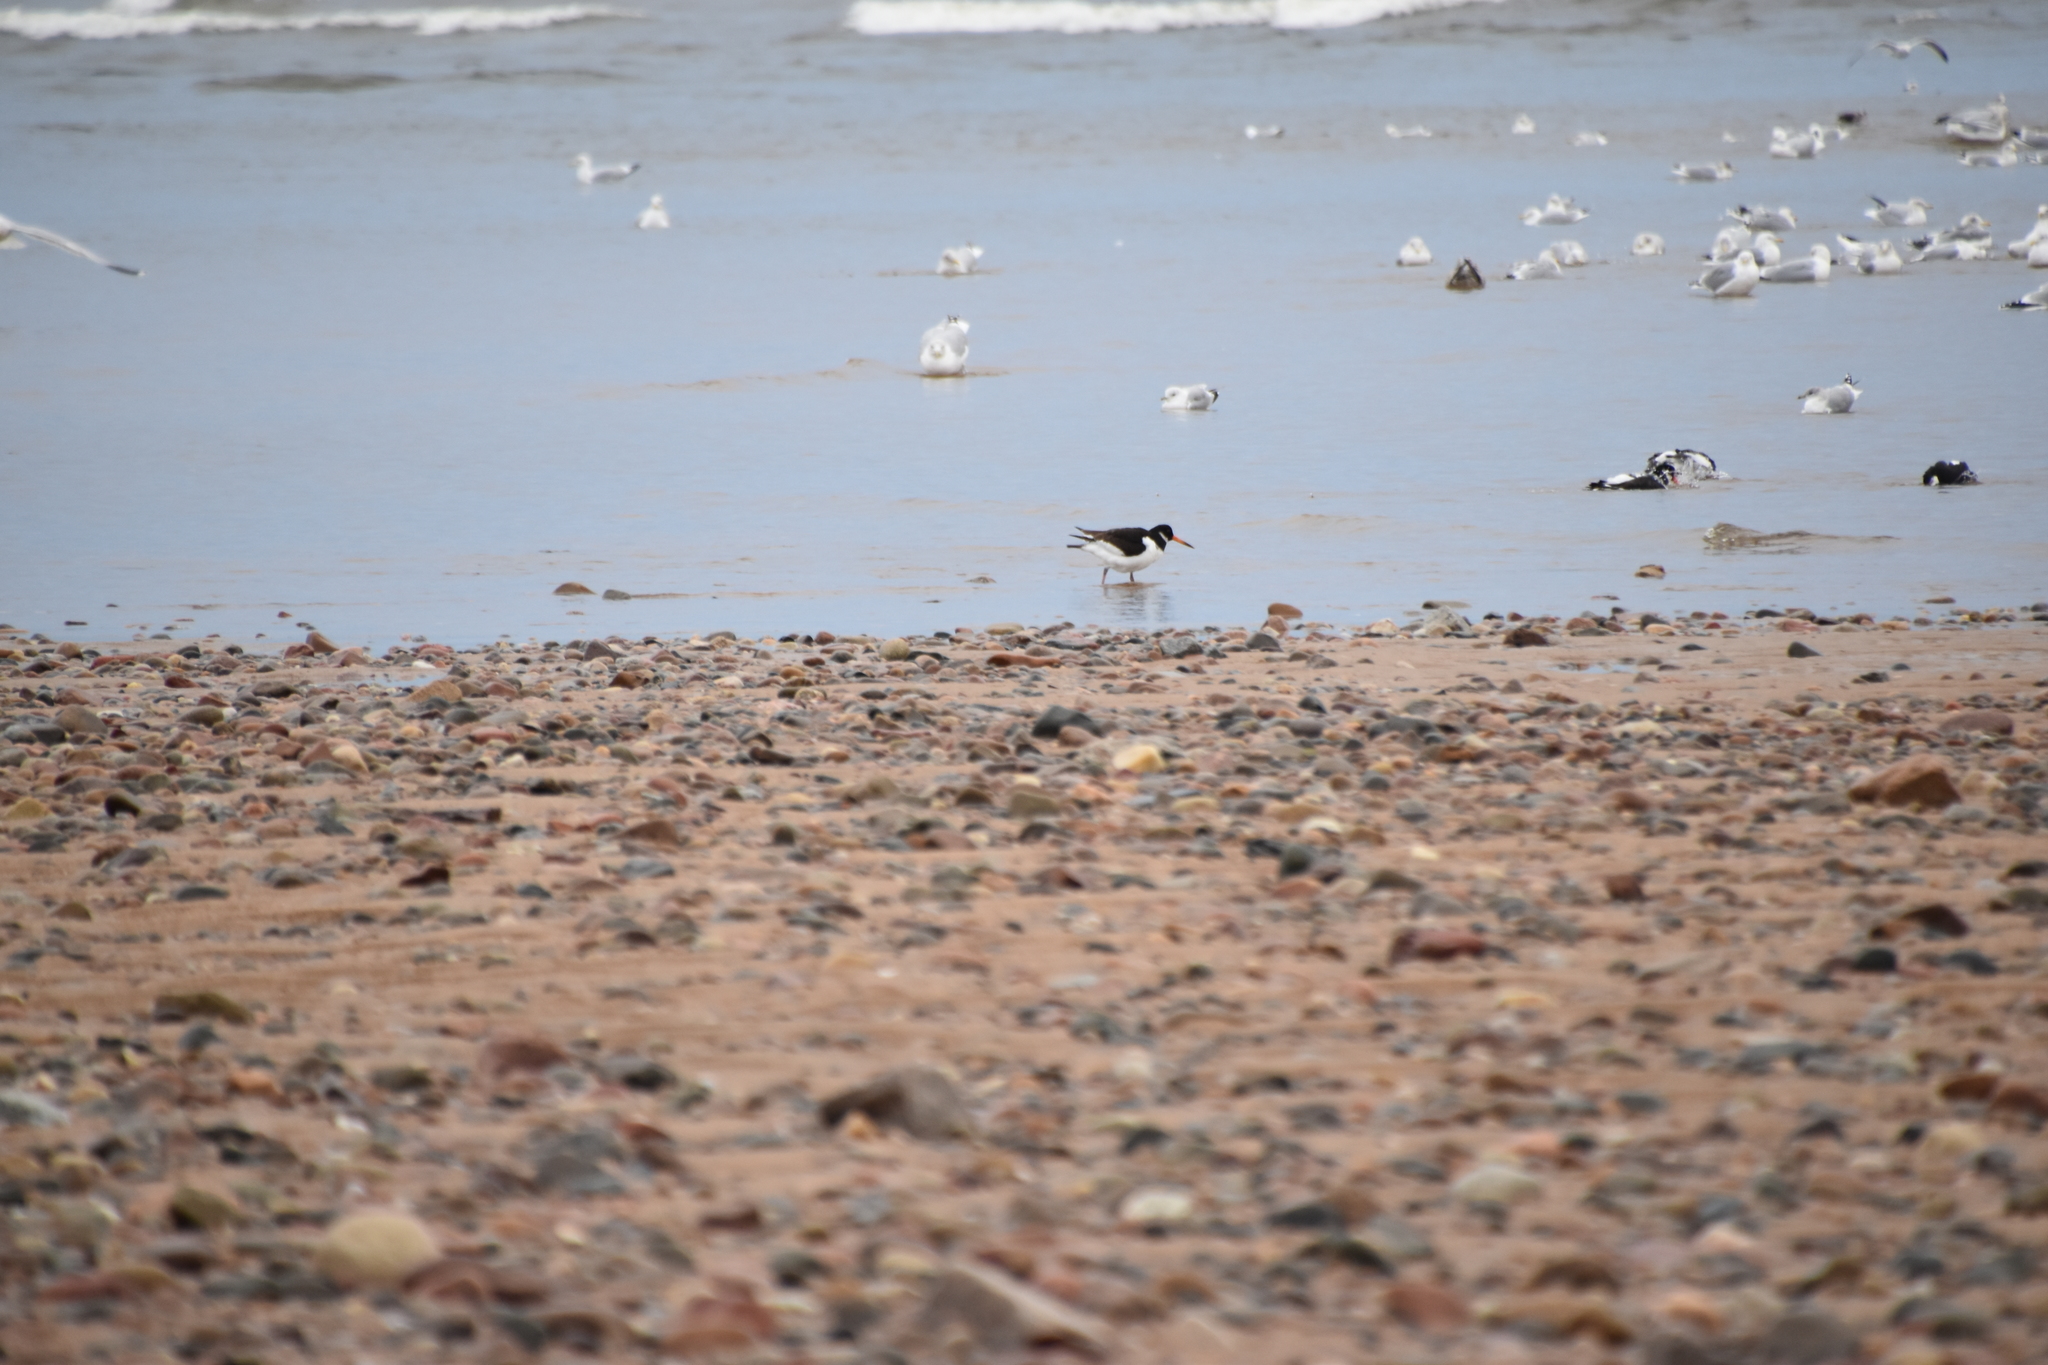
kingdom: Animalia
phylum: Chordata
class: Aves
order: Charadriiformes
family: Haematopodidae
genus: Haematopus
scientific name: Haematopus ostralegus
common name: Eurasian oystercatcher
